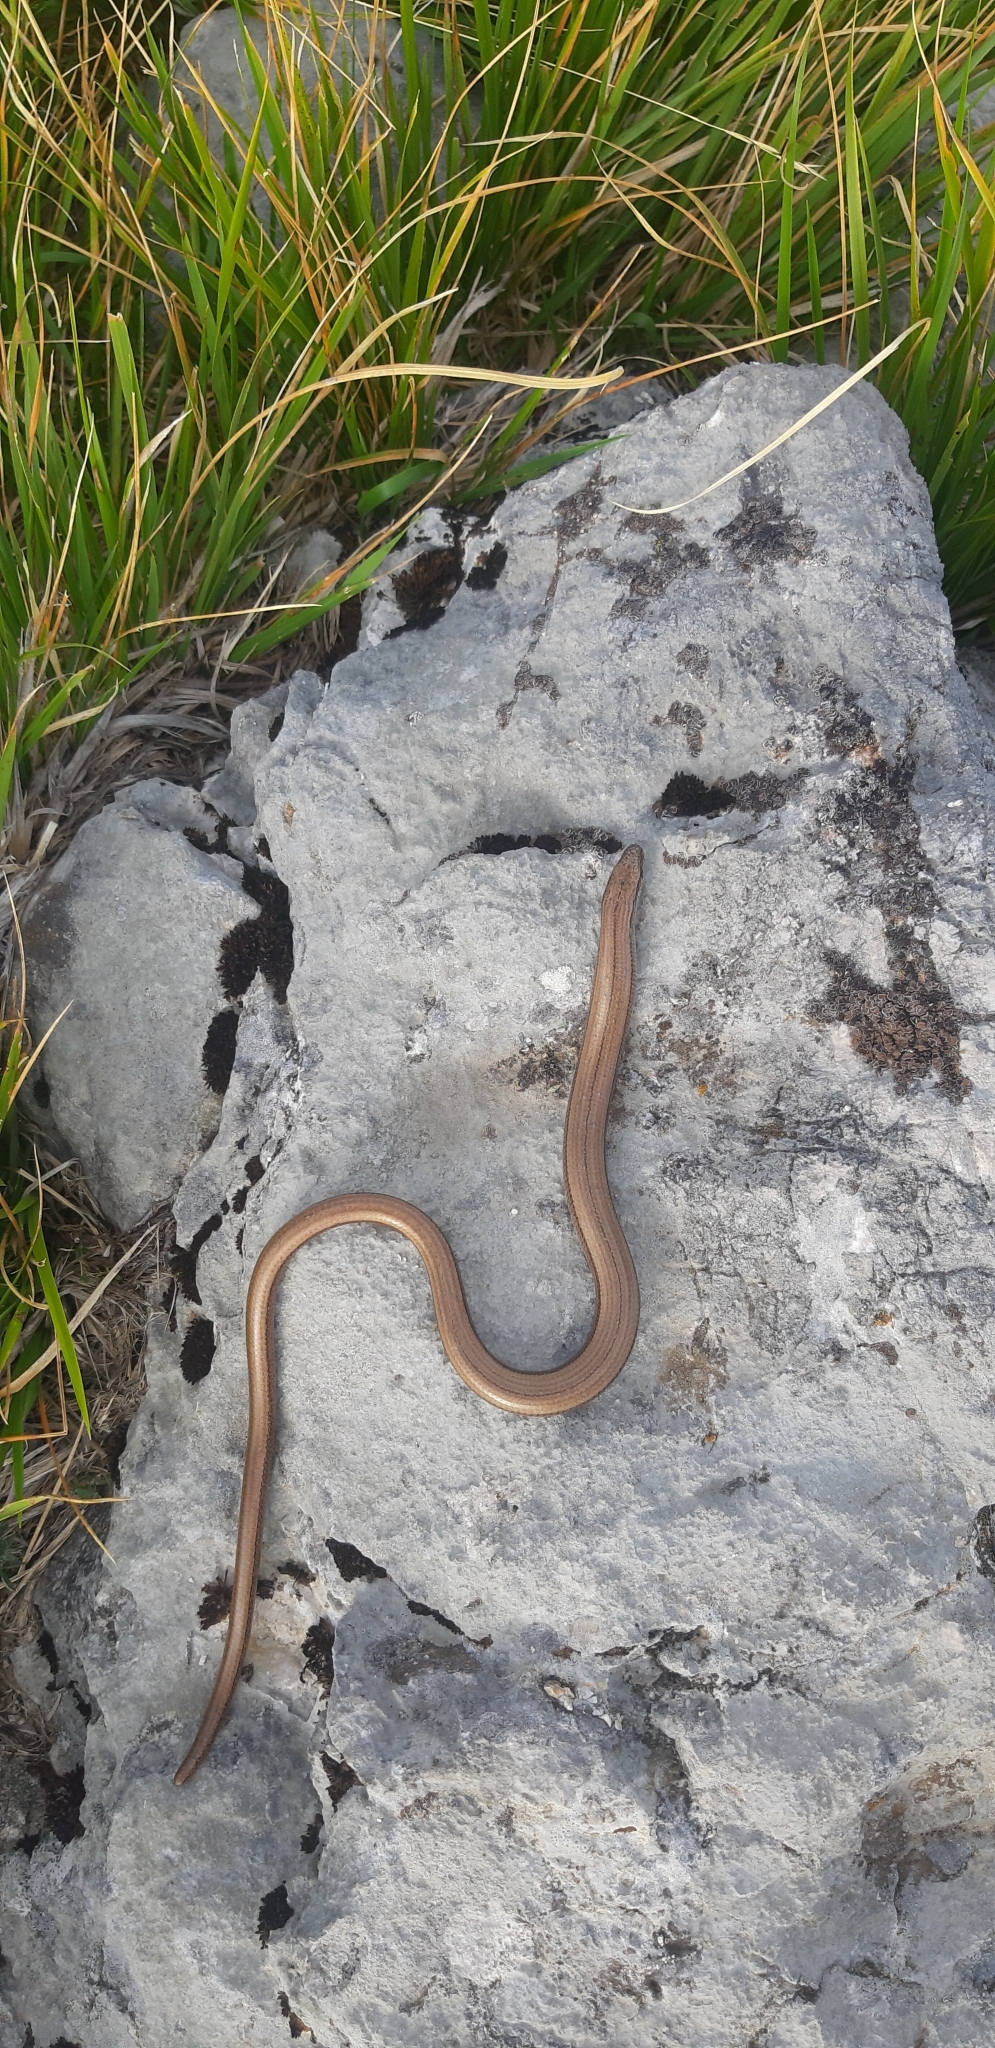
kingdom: Animalia
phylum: Chordata
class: Squamata
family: Anguidae
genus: Anguis
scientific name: Anguis veronensis
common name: Italian slow worm
